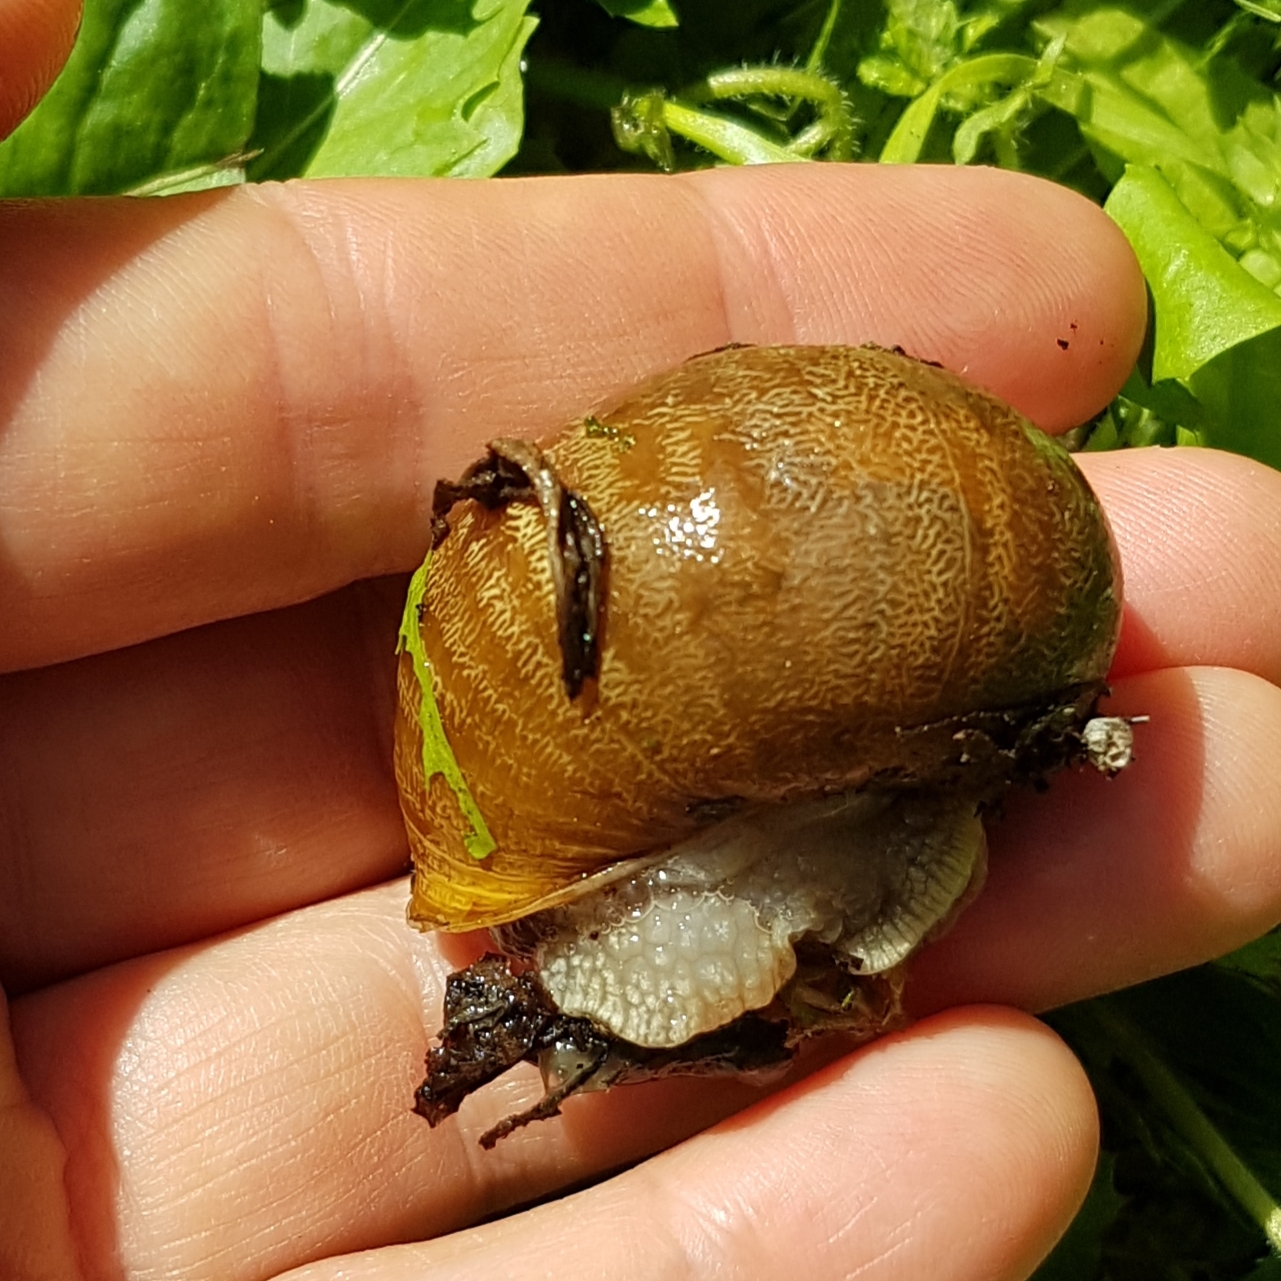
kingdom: Animalia
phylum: Mollusca
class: Gastropoda
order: Stylommatophora
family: Helicidae
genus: Cornu
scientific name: Cornu aspersum
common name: Brown garden snail
